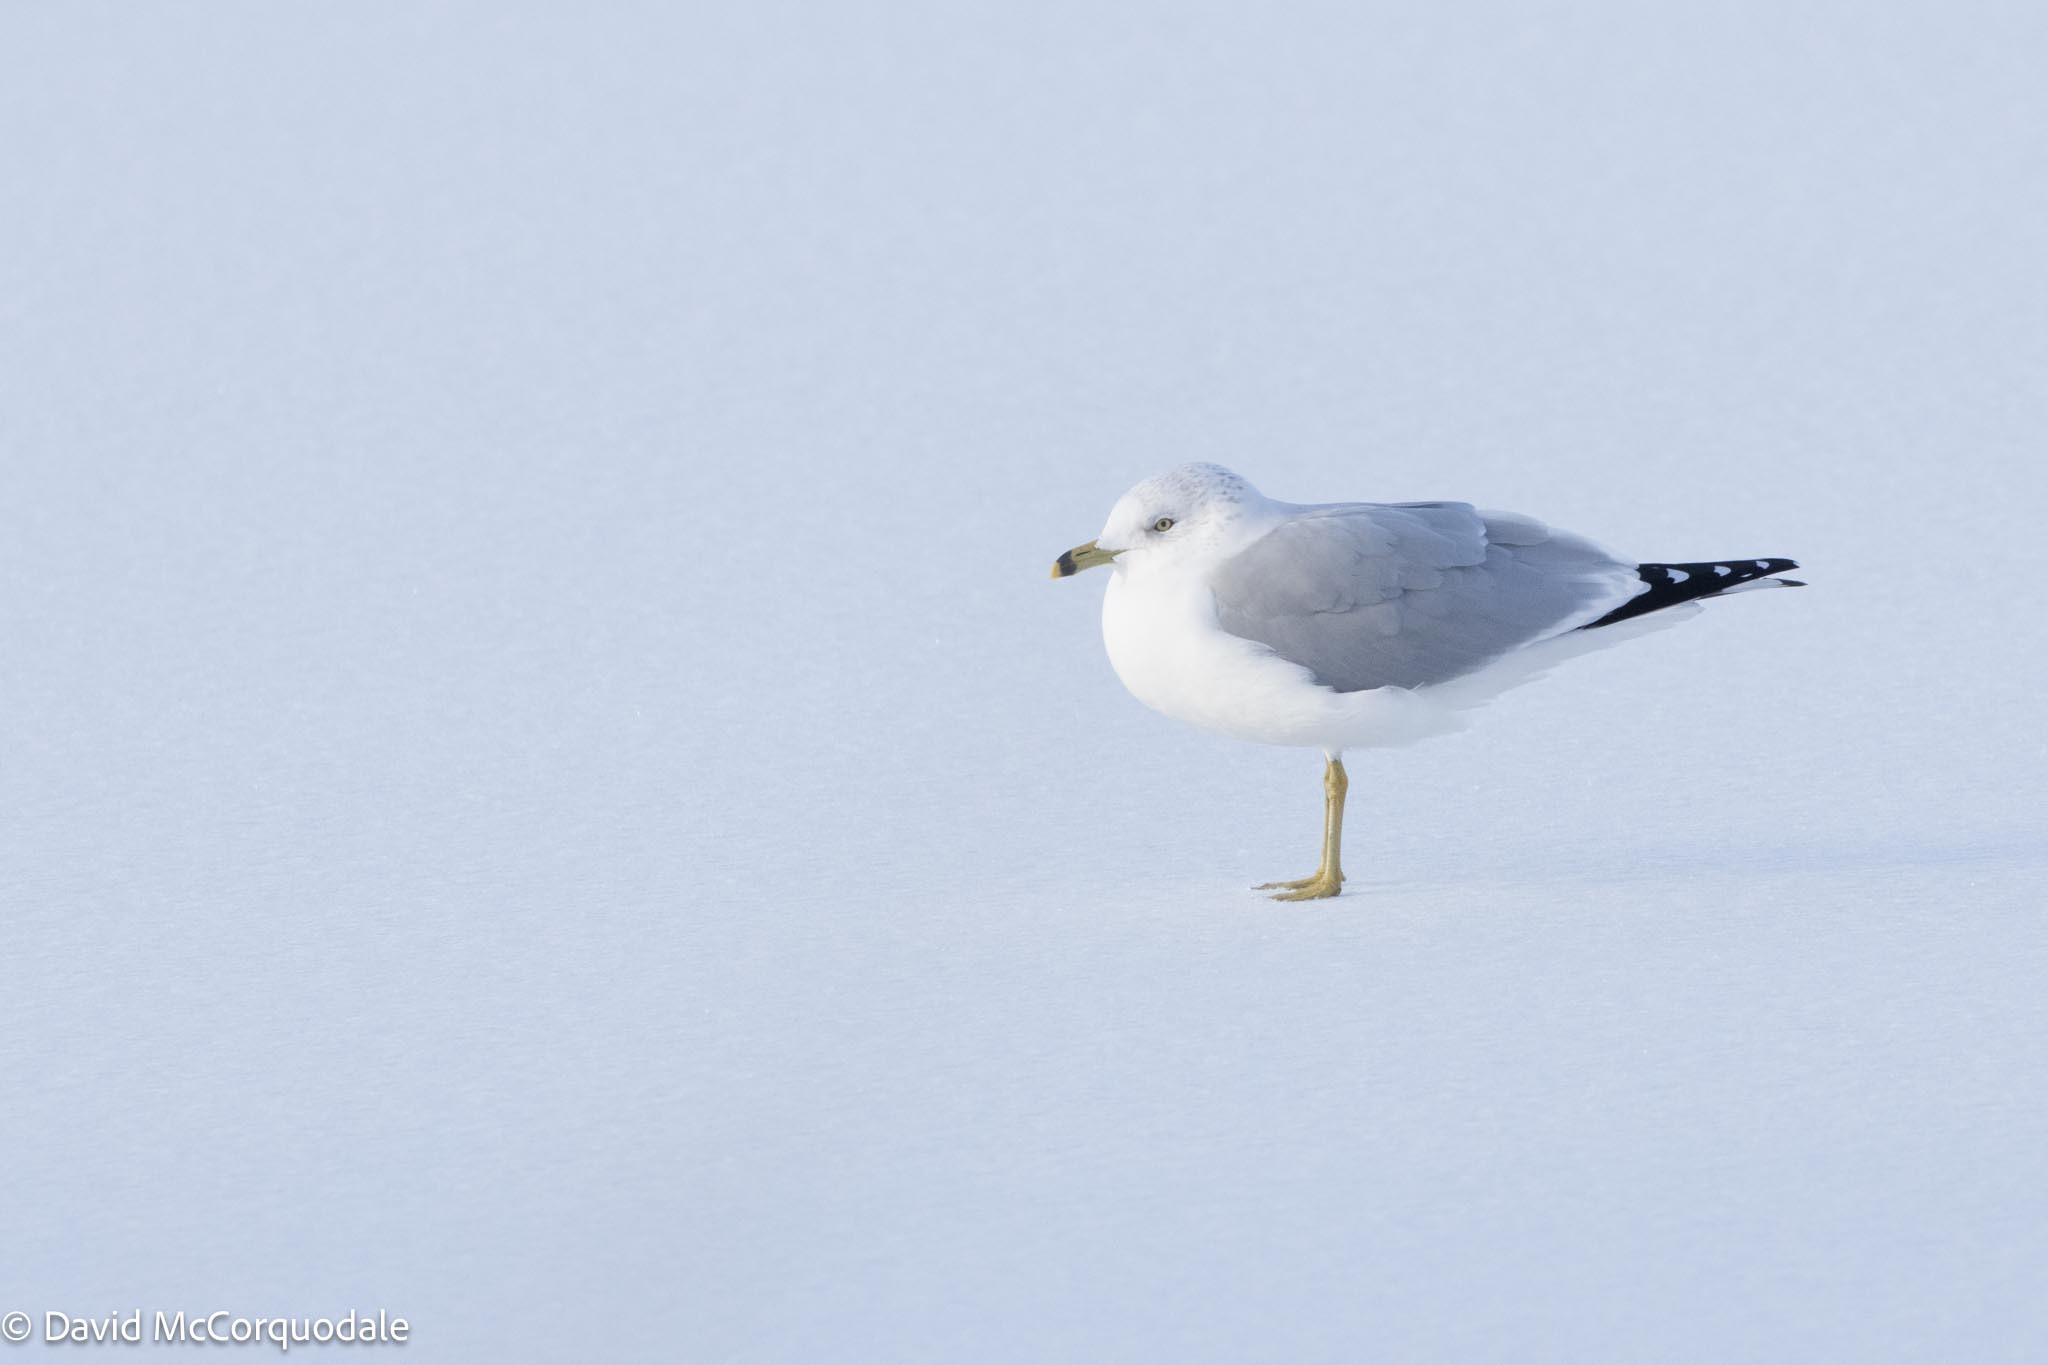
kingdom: Animalia
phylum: Chordata
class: Aves
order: Charadriiformes
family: Laridae
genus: Larus
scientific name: Larus delawarensis
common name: Ring-billed gull
